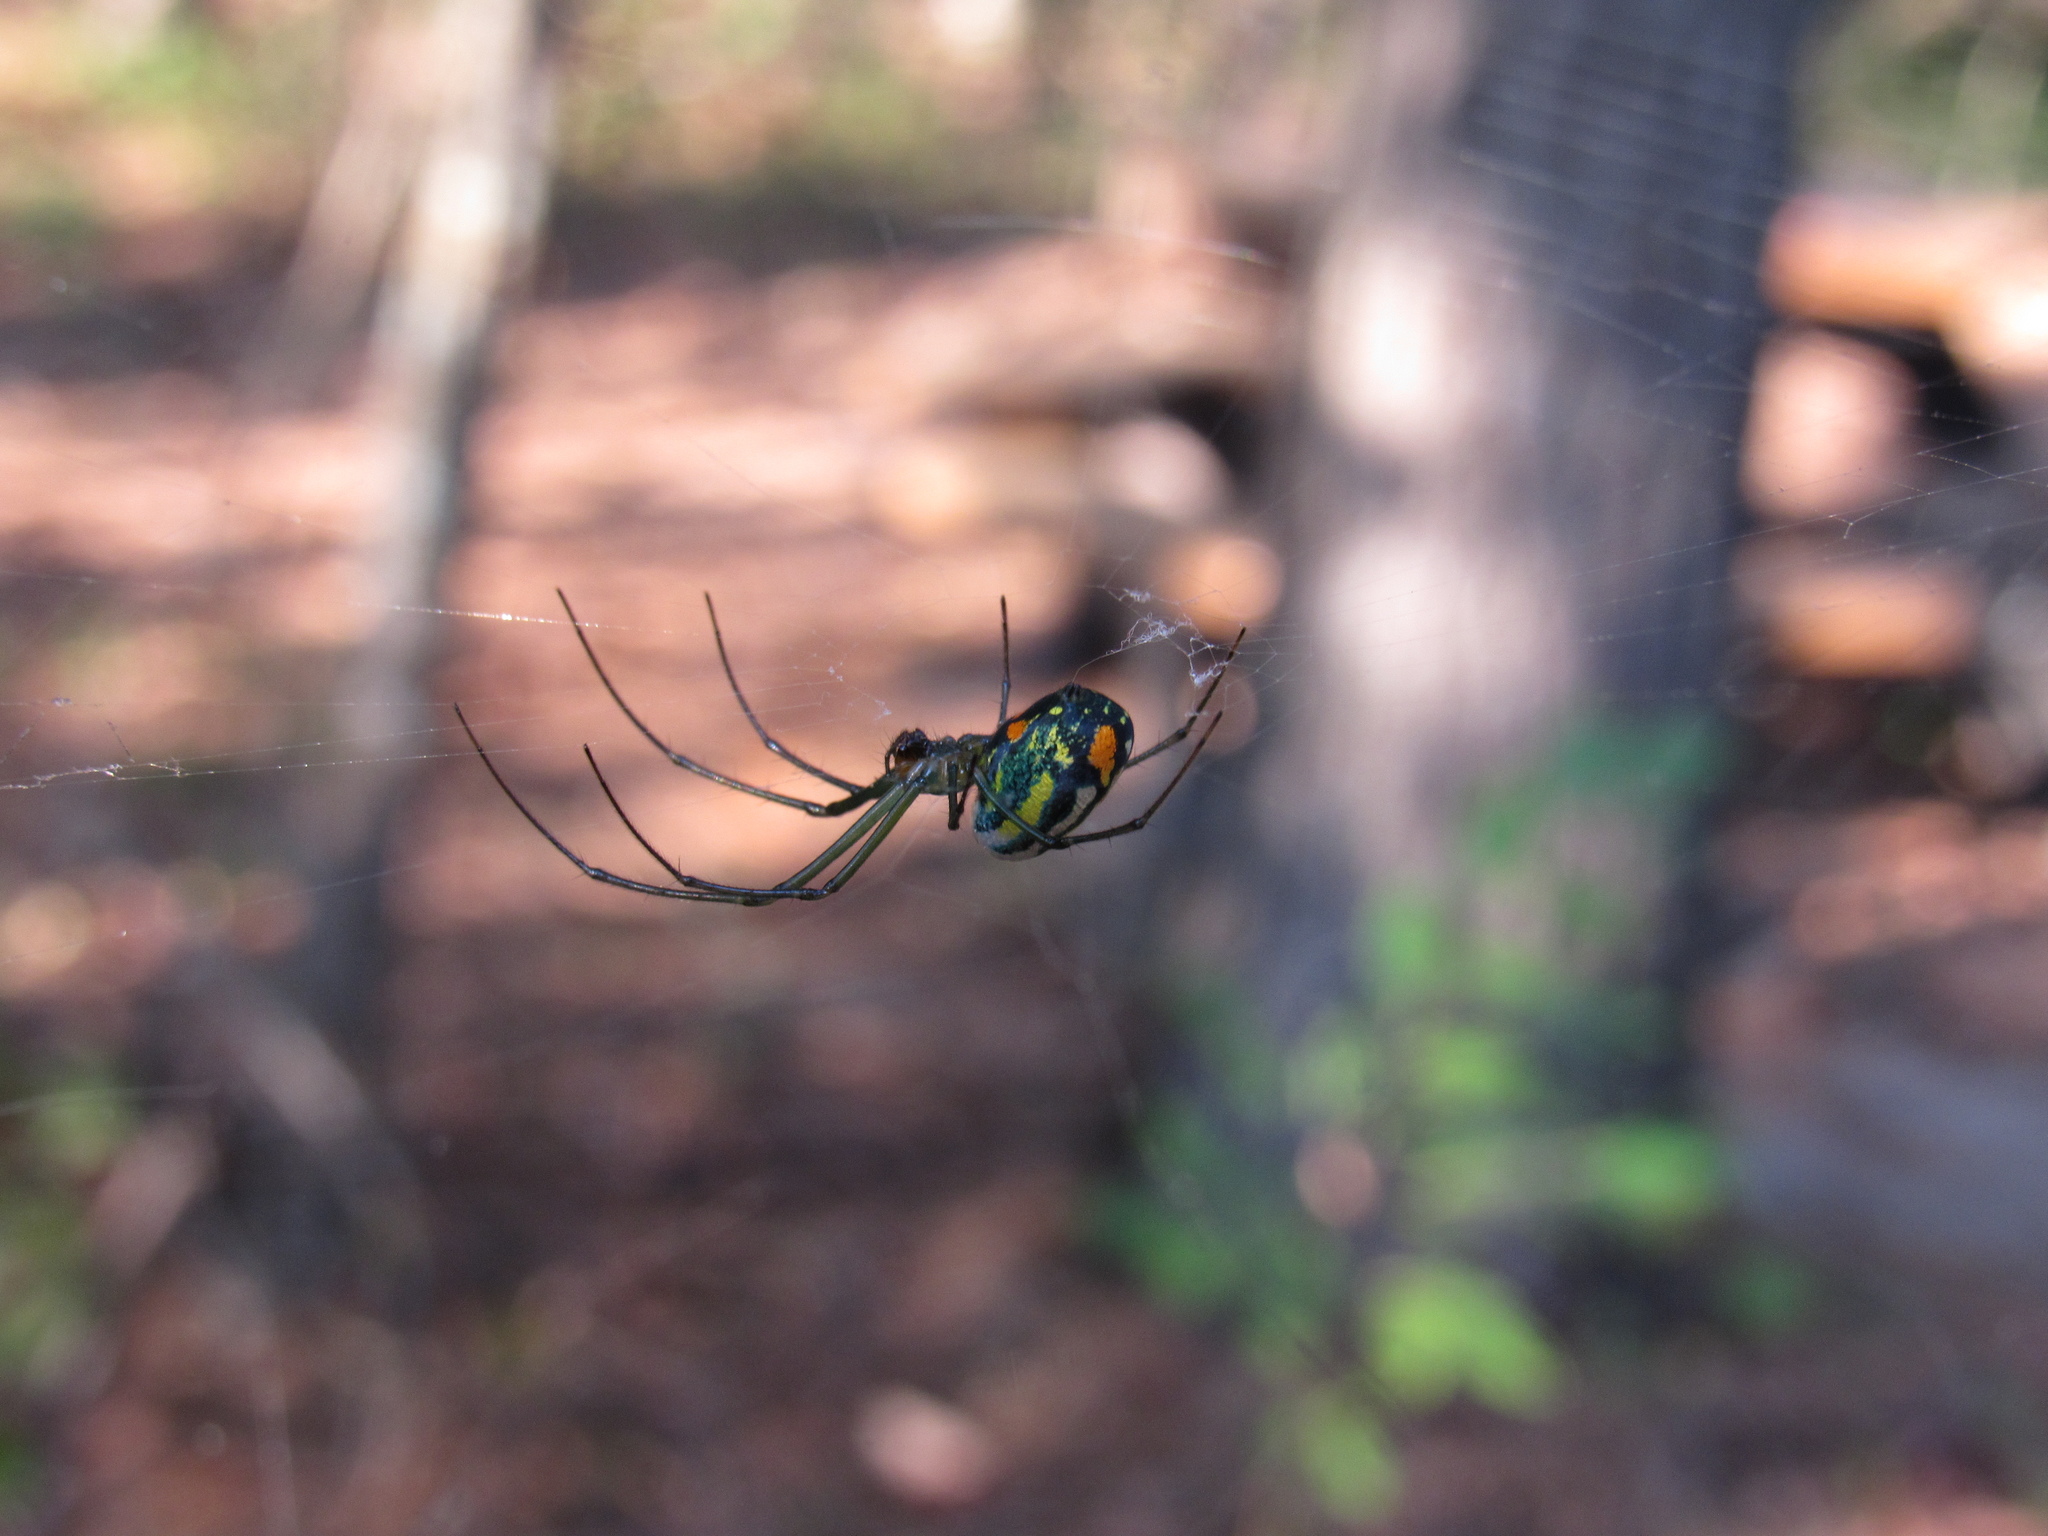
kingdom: Animalia
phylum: Arthropoda
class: Arachnida
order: Araneae
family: Tetragnathidae
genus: Leucauge
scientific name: Leucauge argyrobapta
